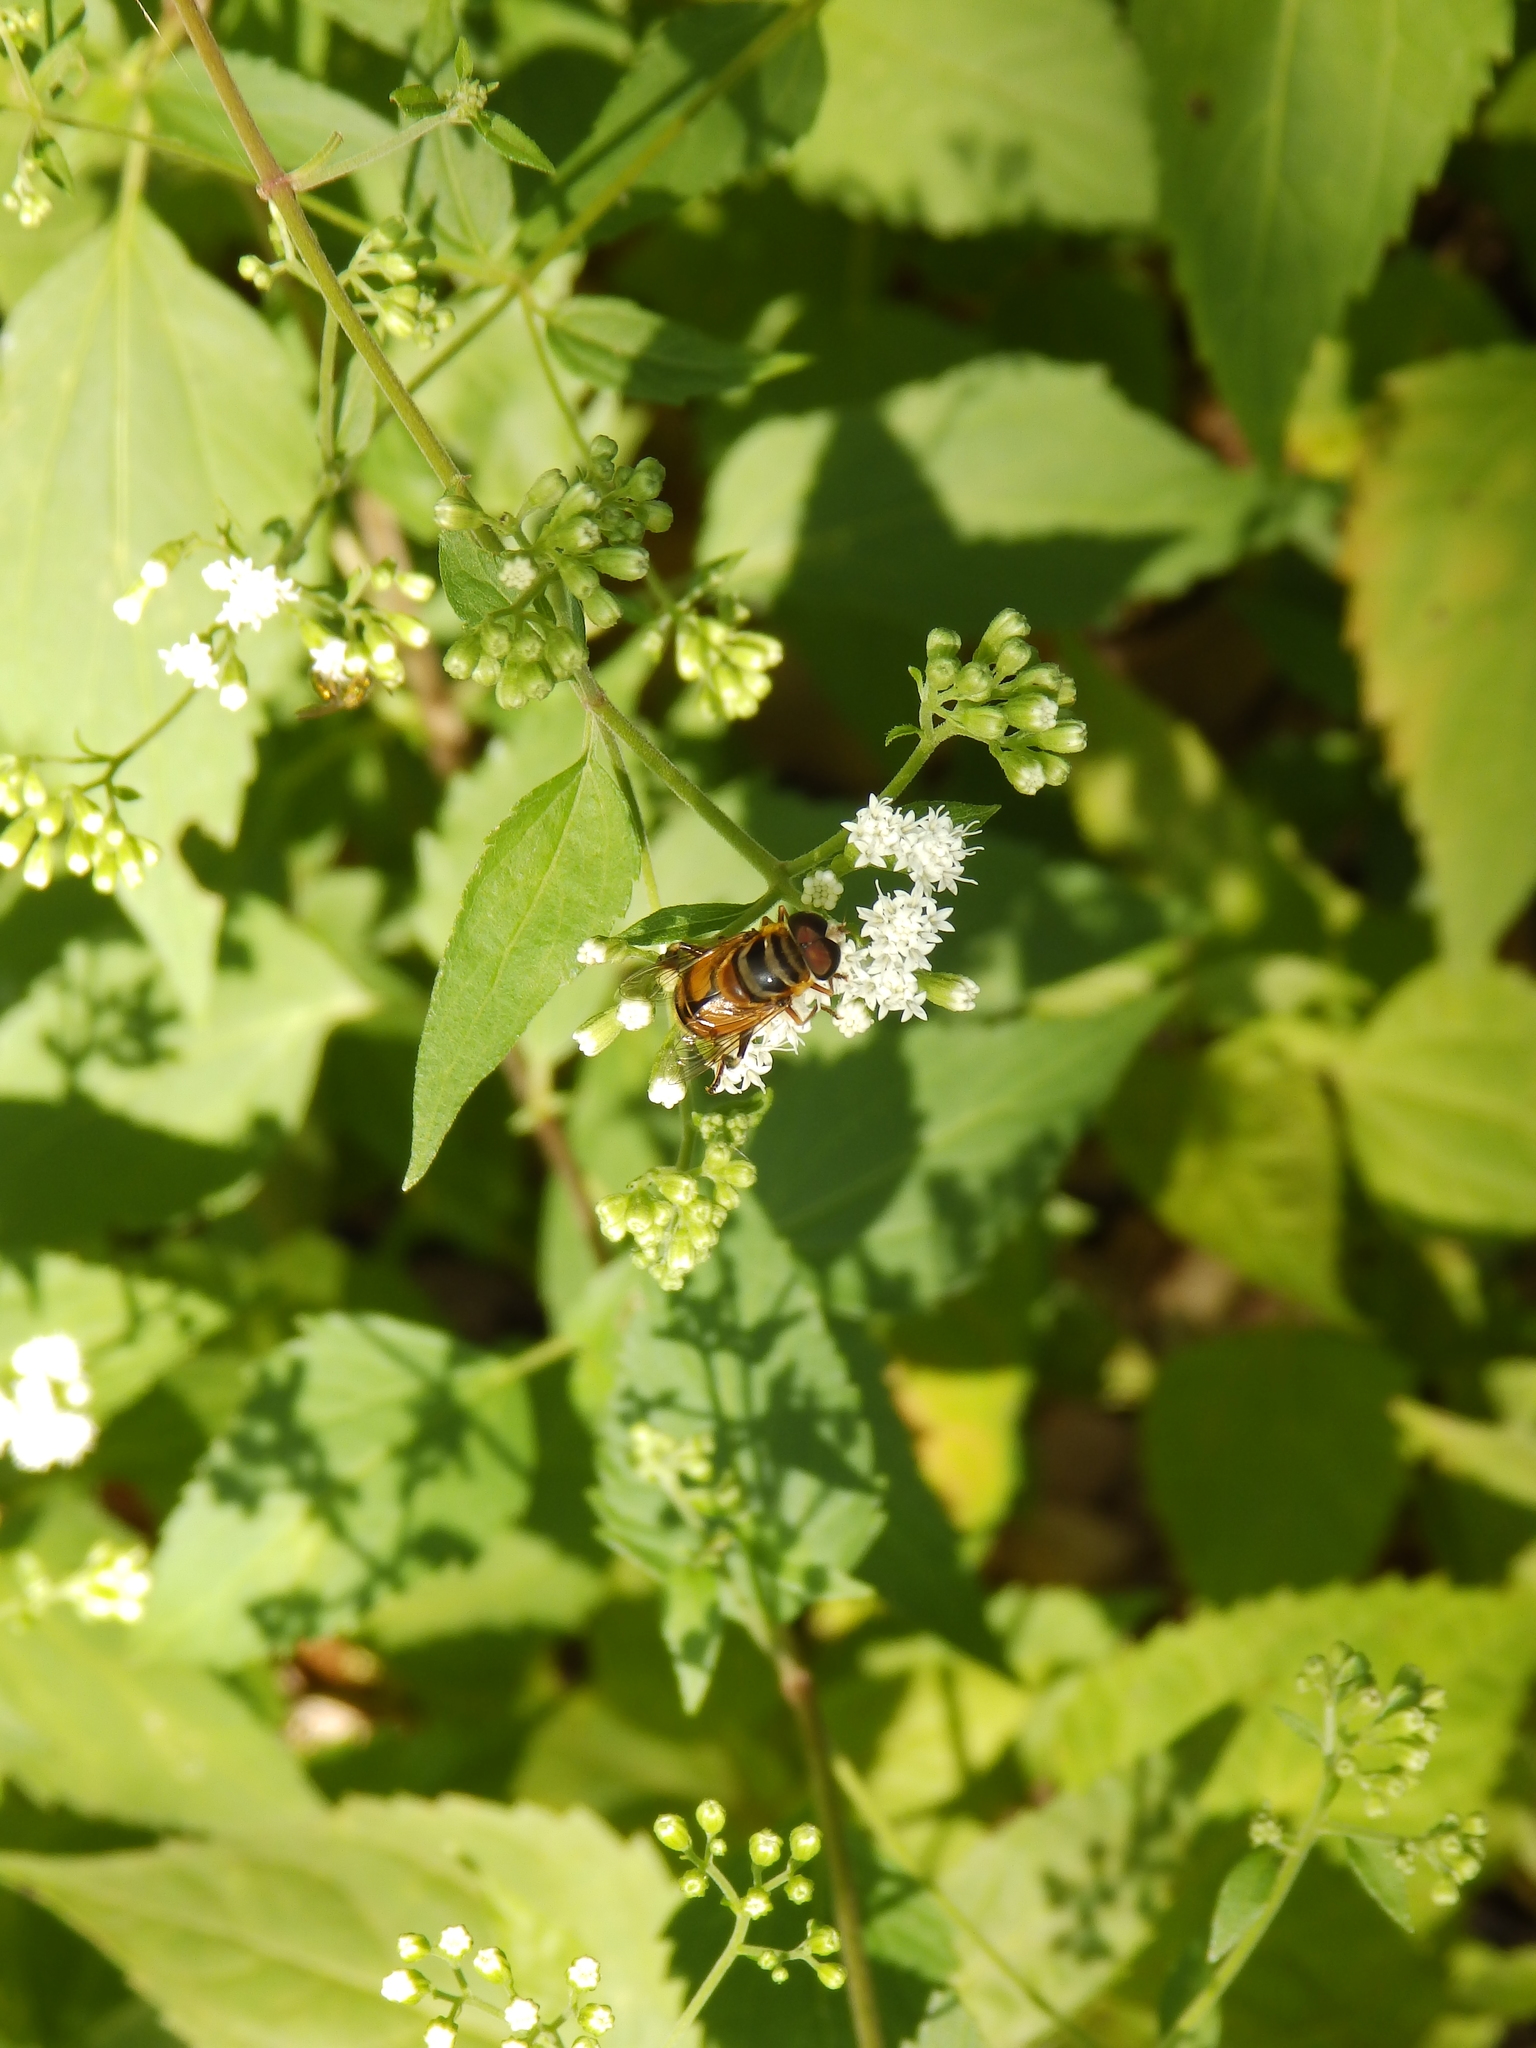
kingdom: Animalia
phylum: Arthropoda
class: Insecta
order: Diptera
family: Syrphidae
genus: Palpada
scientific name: Palpada vinetorum
